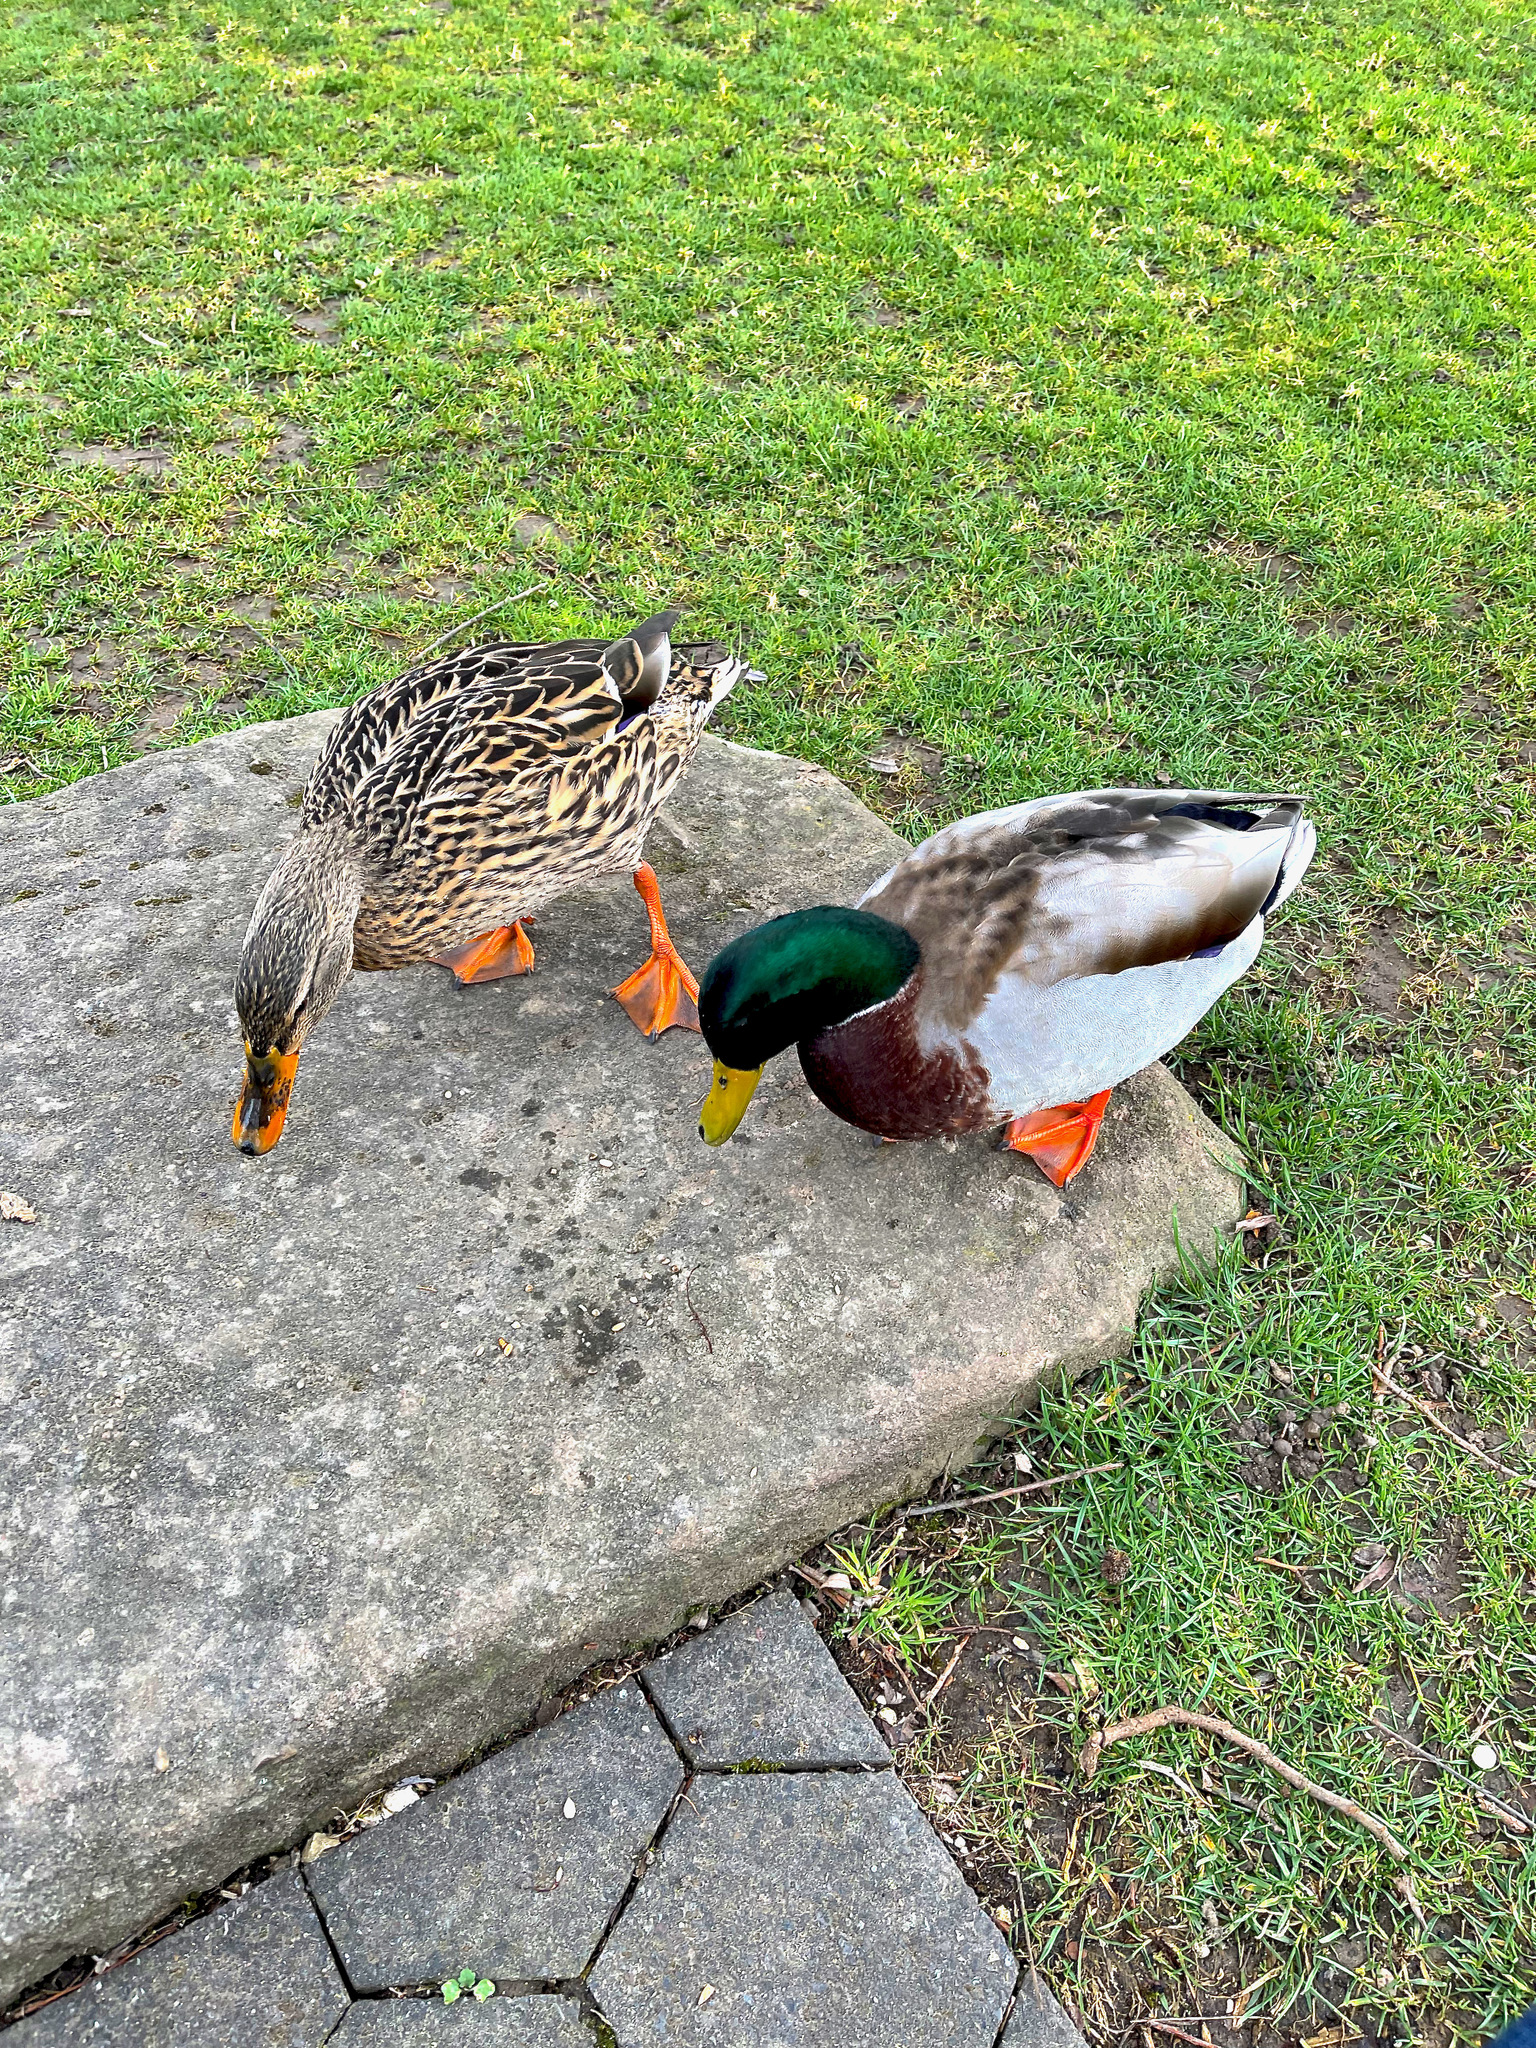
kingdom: Animalia
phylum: Chordata
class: Aves
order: Anseriformes
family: Anatidae
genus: Anas
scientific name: Anas platyrhynchos
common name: Mallard
